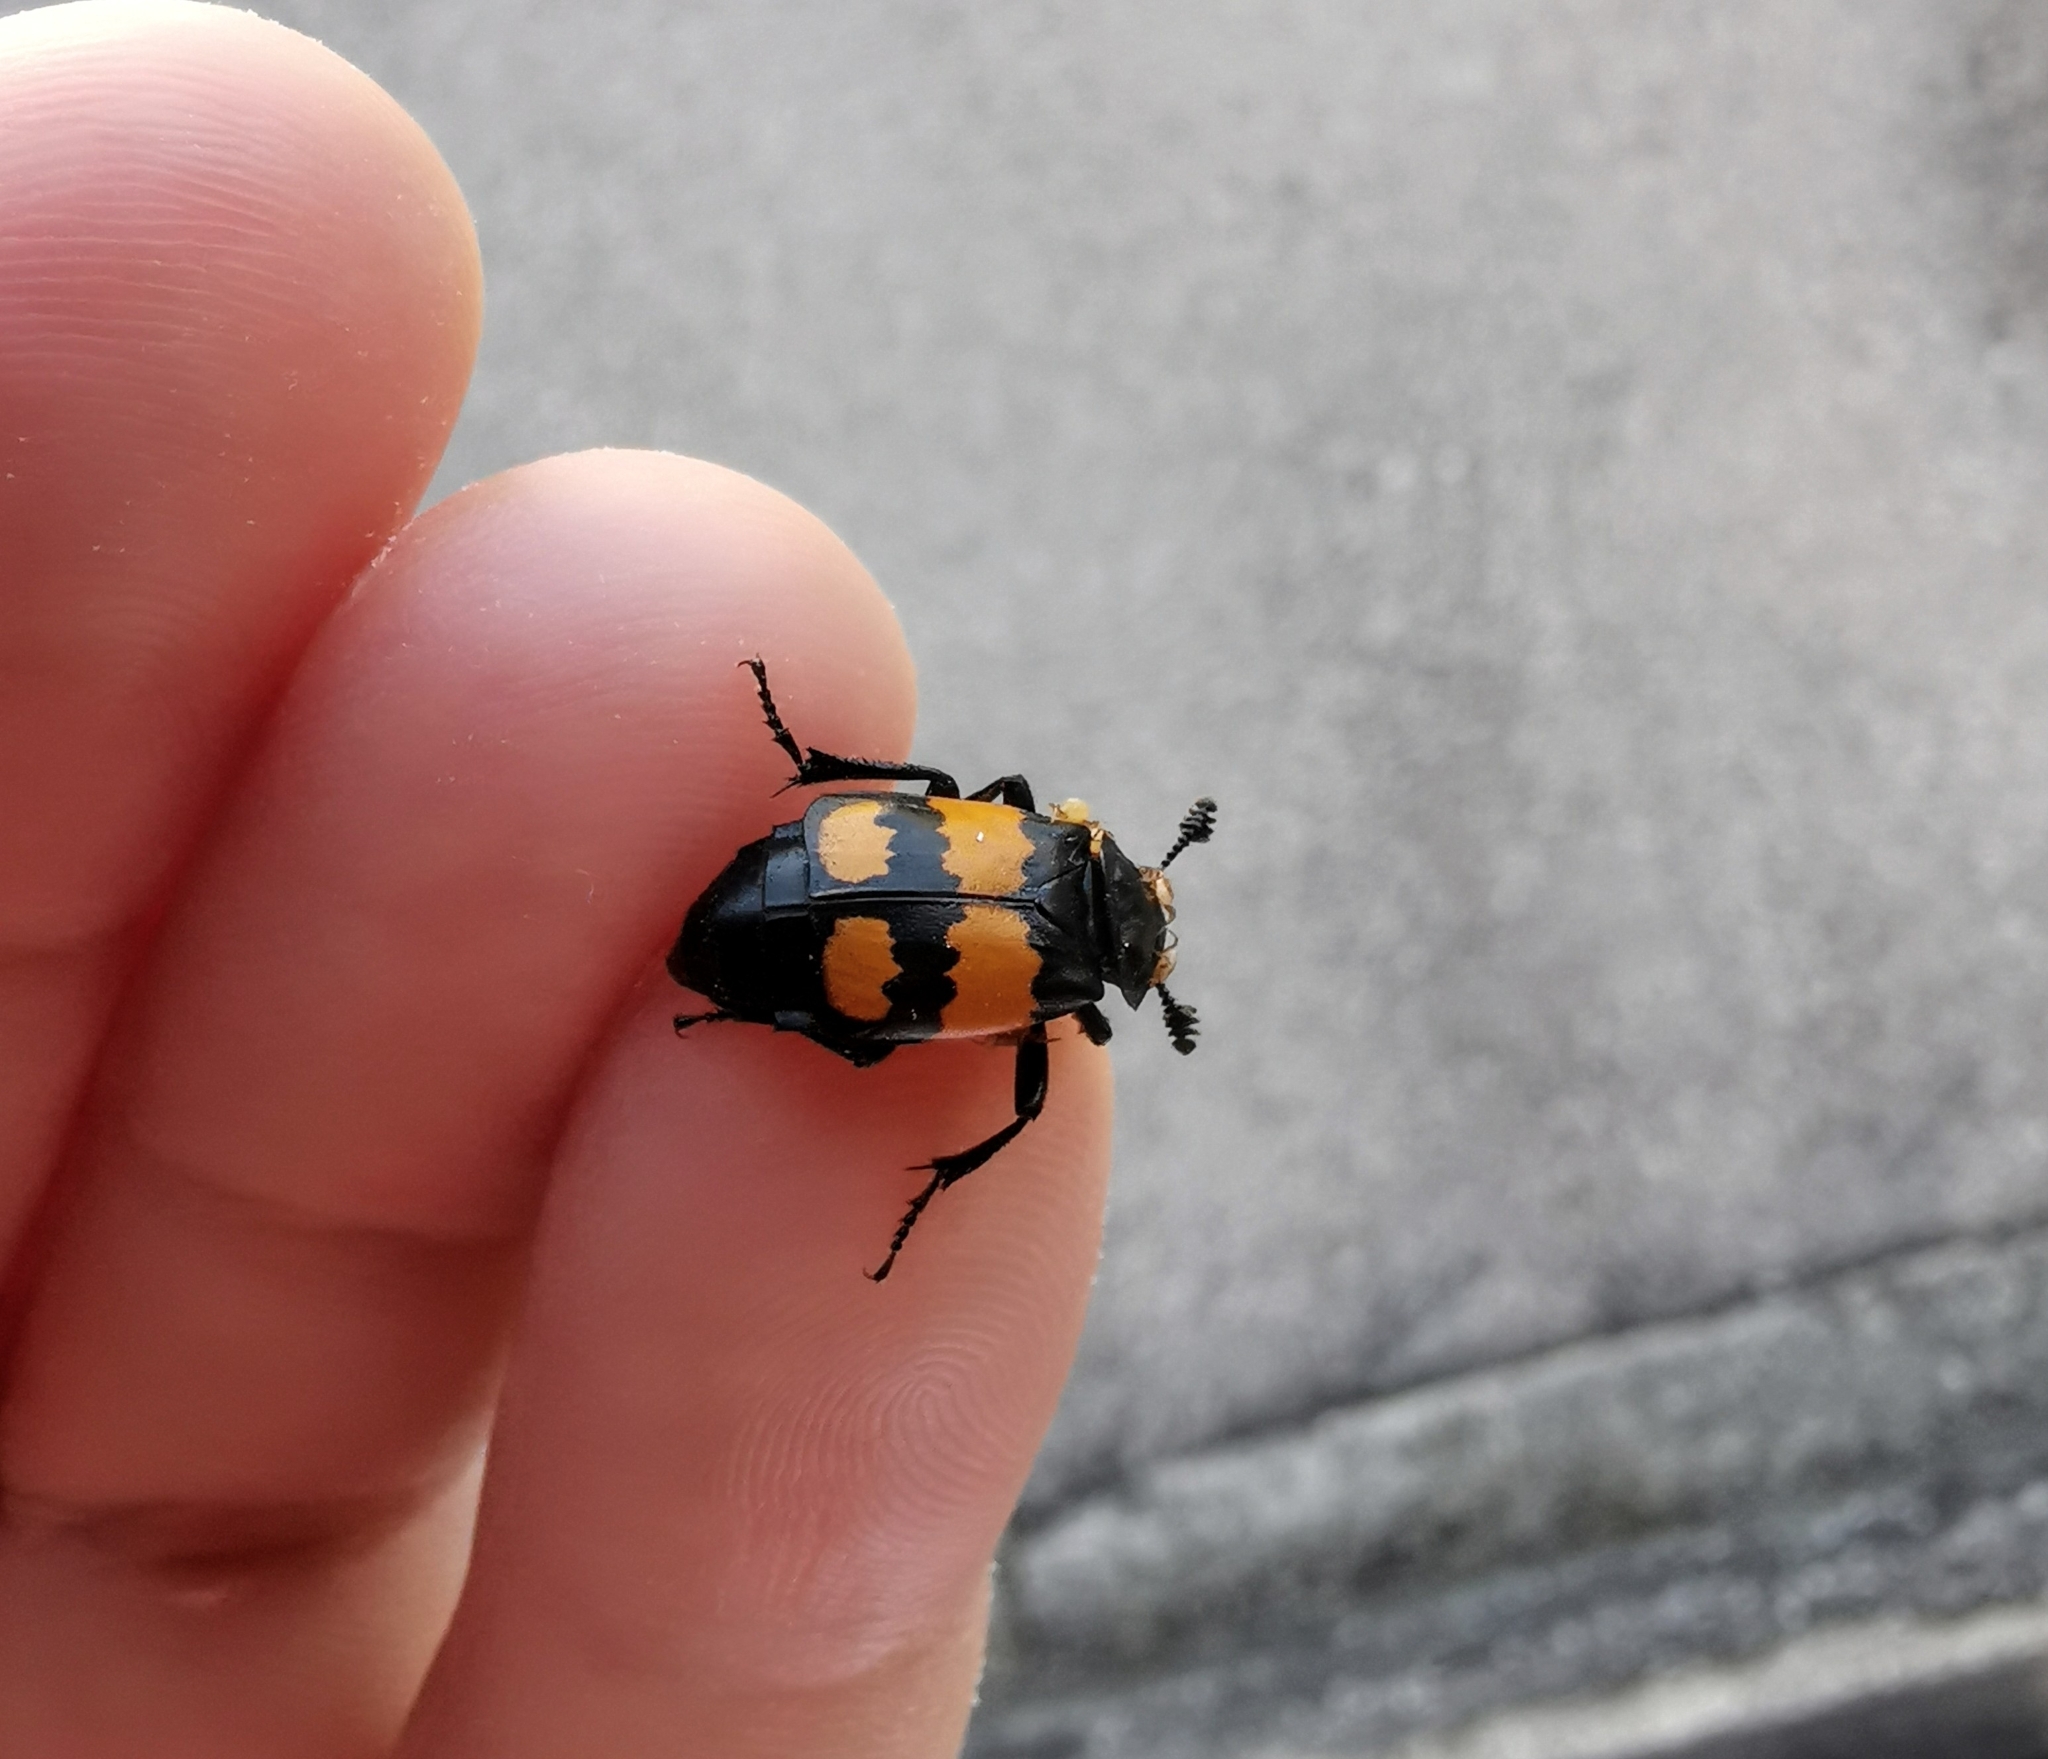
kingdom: Animalia
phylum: Arthropoda
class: Insecta
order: Coleoptera
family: Staphylinidae
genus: Nicrophorus
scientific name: Nicrophorus vespilloides
